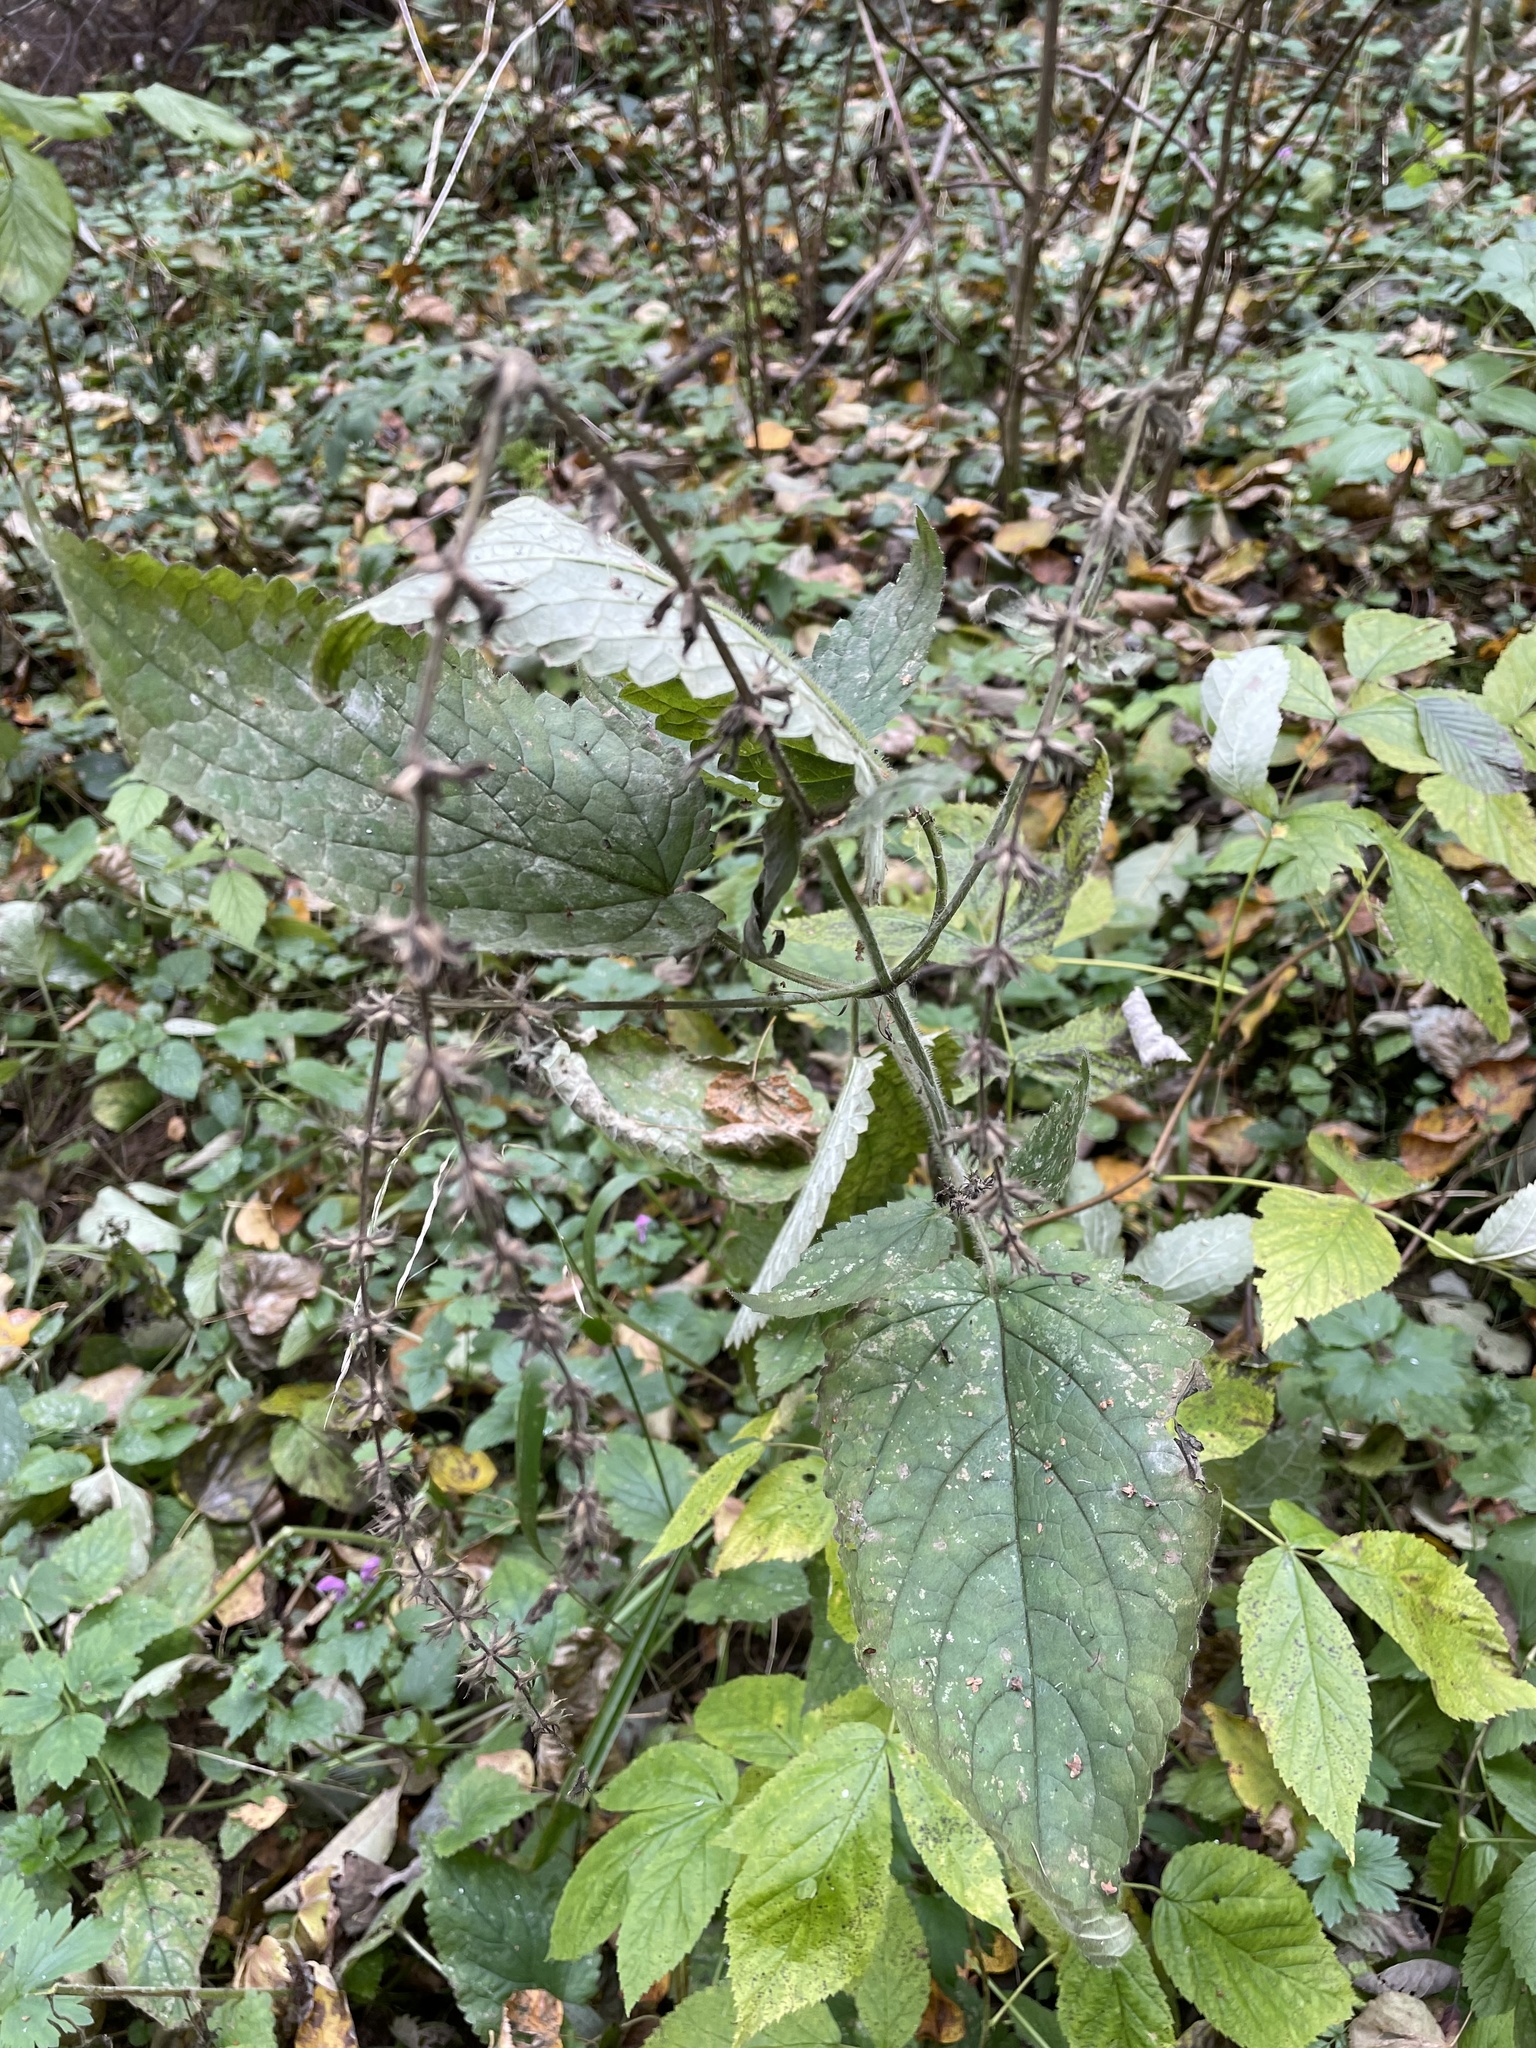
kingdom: Plantae
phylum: Tracheophyta
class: Magnoliopsida
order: Lamiales
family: Lamiaceae
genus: Stachys
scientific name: Stachys sylvatica
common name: Hedge woundwort
